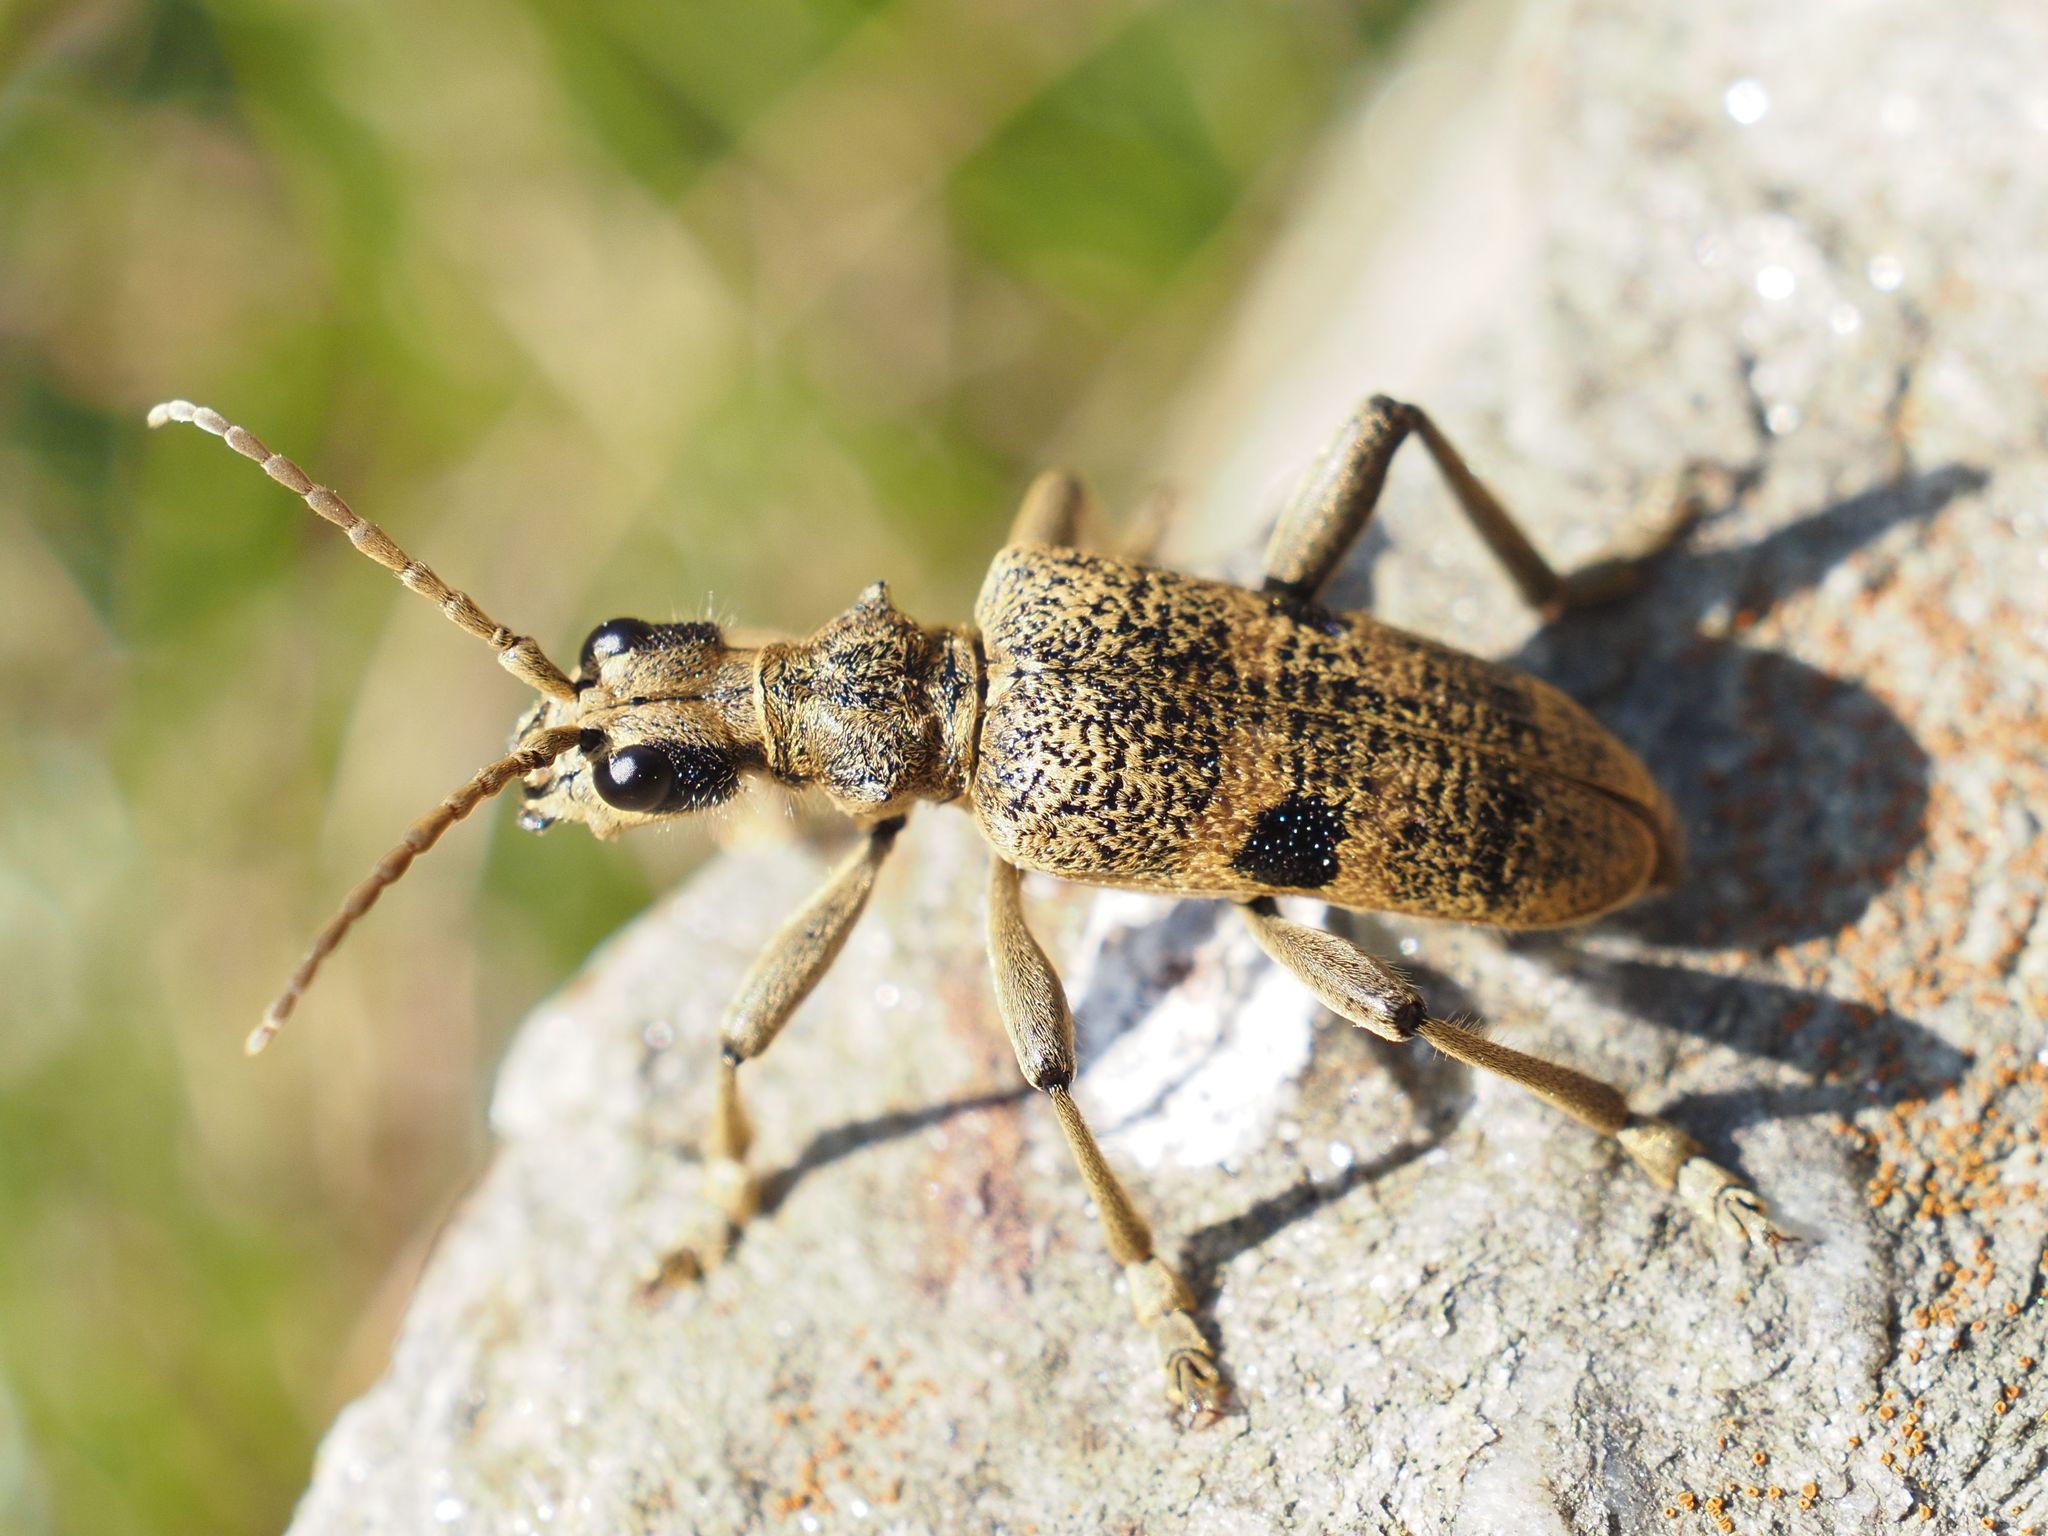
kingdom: Animalia
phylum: Arthropoda
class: Insecta
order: Coleoptera
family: Cerambycidae
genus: Rhagium
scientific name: Rhagium mordax
